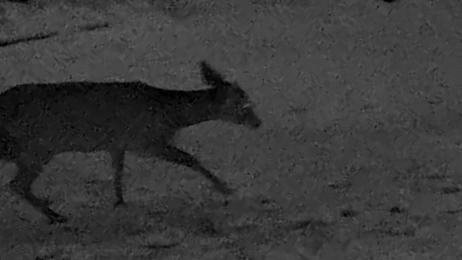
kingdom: Animalia
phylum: Chordata
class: Mammalia
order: Artiodactyla
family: Cervidae
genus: Odocoileus
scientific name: Odocoileus virginianus
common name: White-tailed deer
